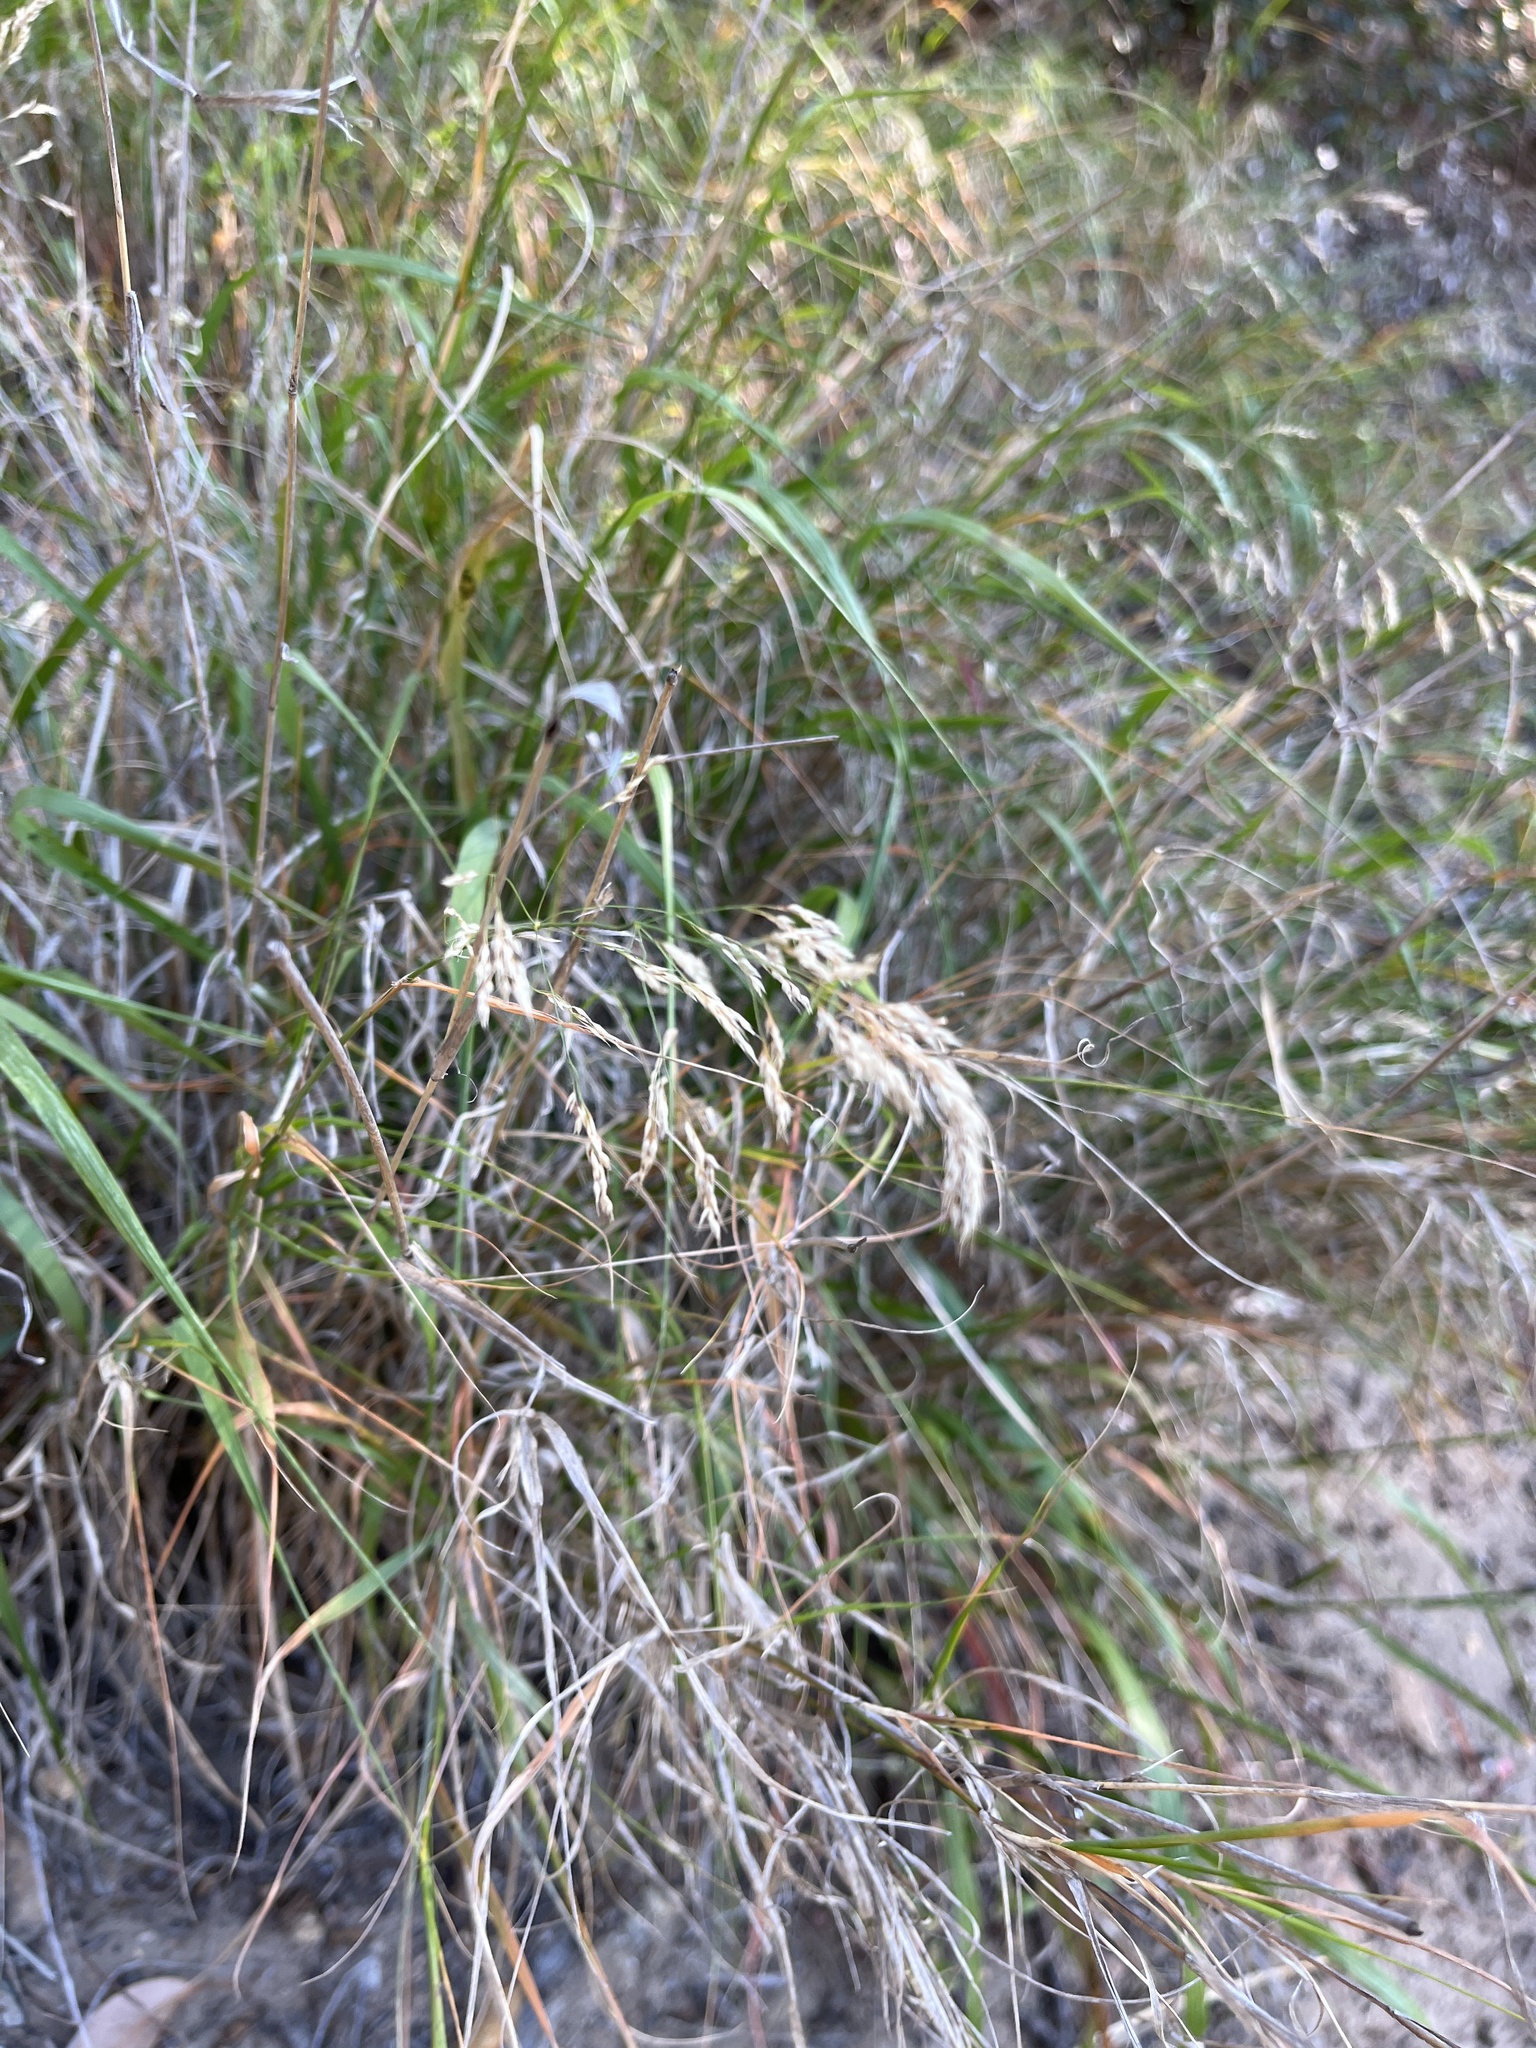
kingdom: Plantae
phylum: Tracheophyta
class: Liliopsida
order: Poales
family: Poaceae
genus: Oloptum
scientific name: Oloptum miliaceum
